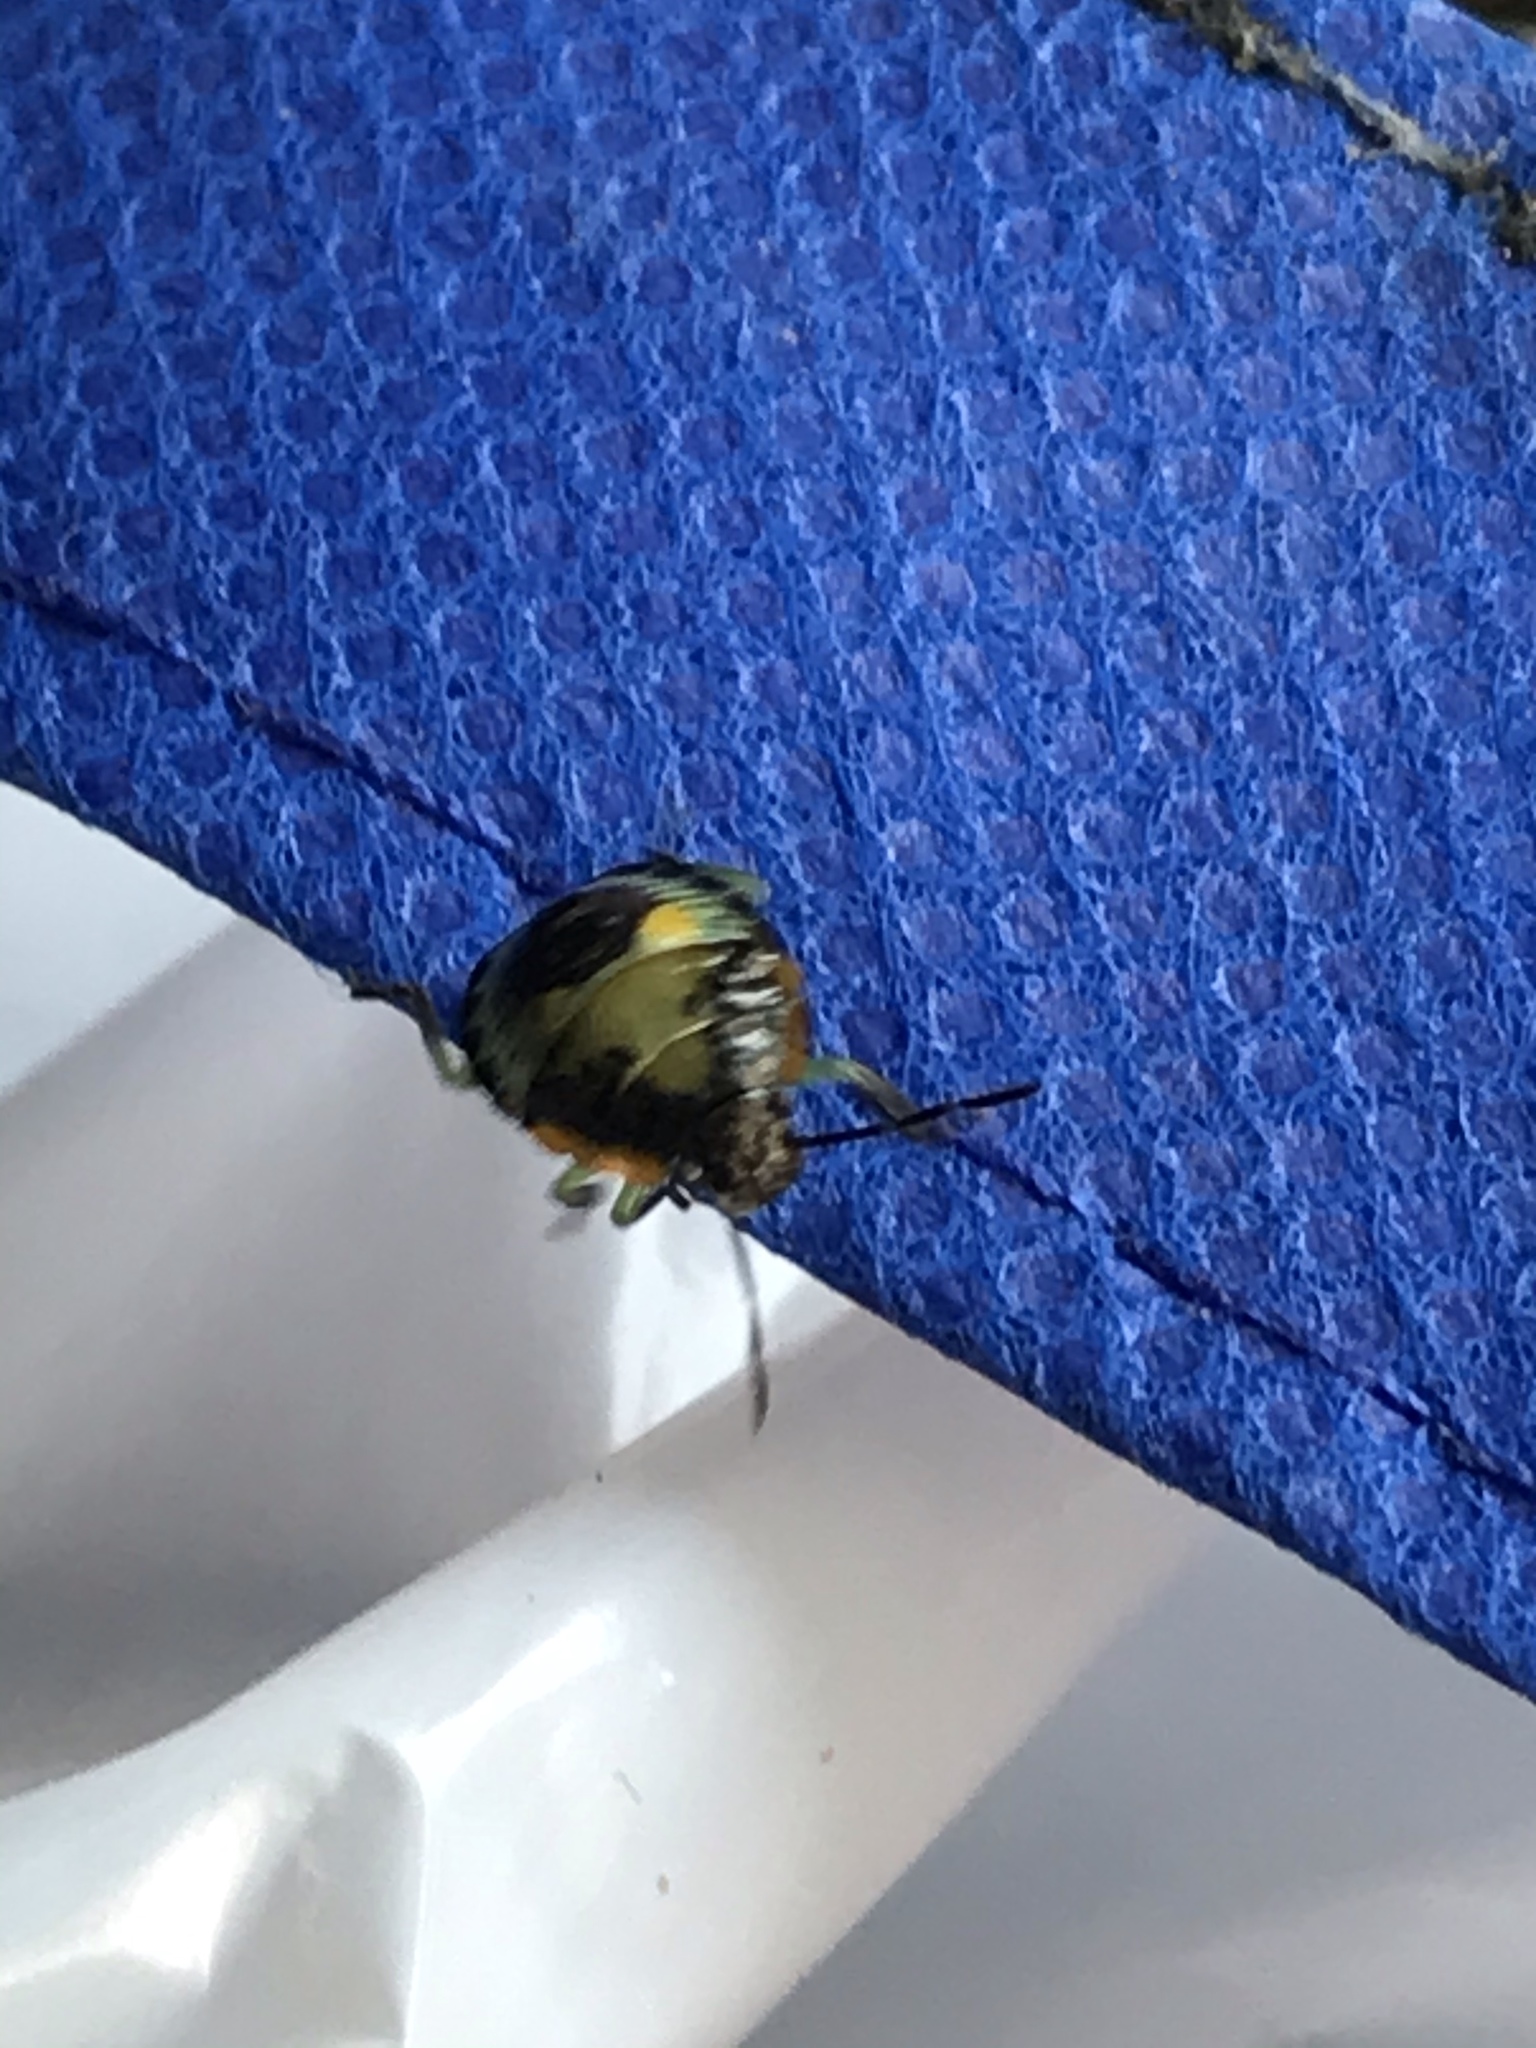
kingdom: Animalia
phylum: Arthropoda
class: Insecta
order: Hemiptera
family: Pentatomidae
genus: Chinavia
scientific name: Chinavia hilaris
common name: Green stink bug
